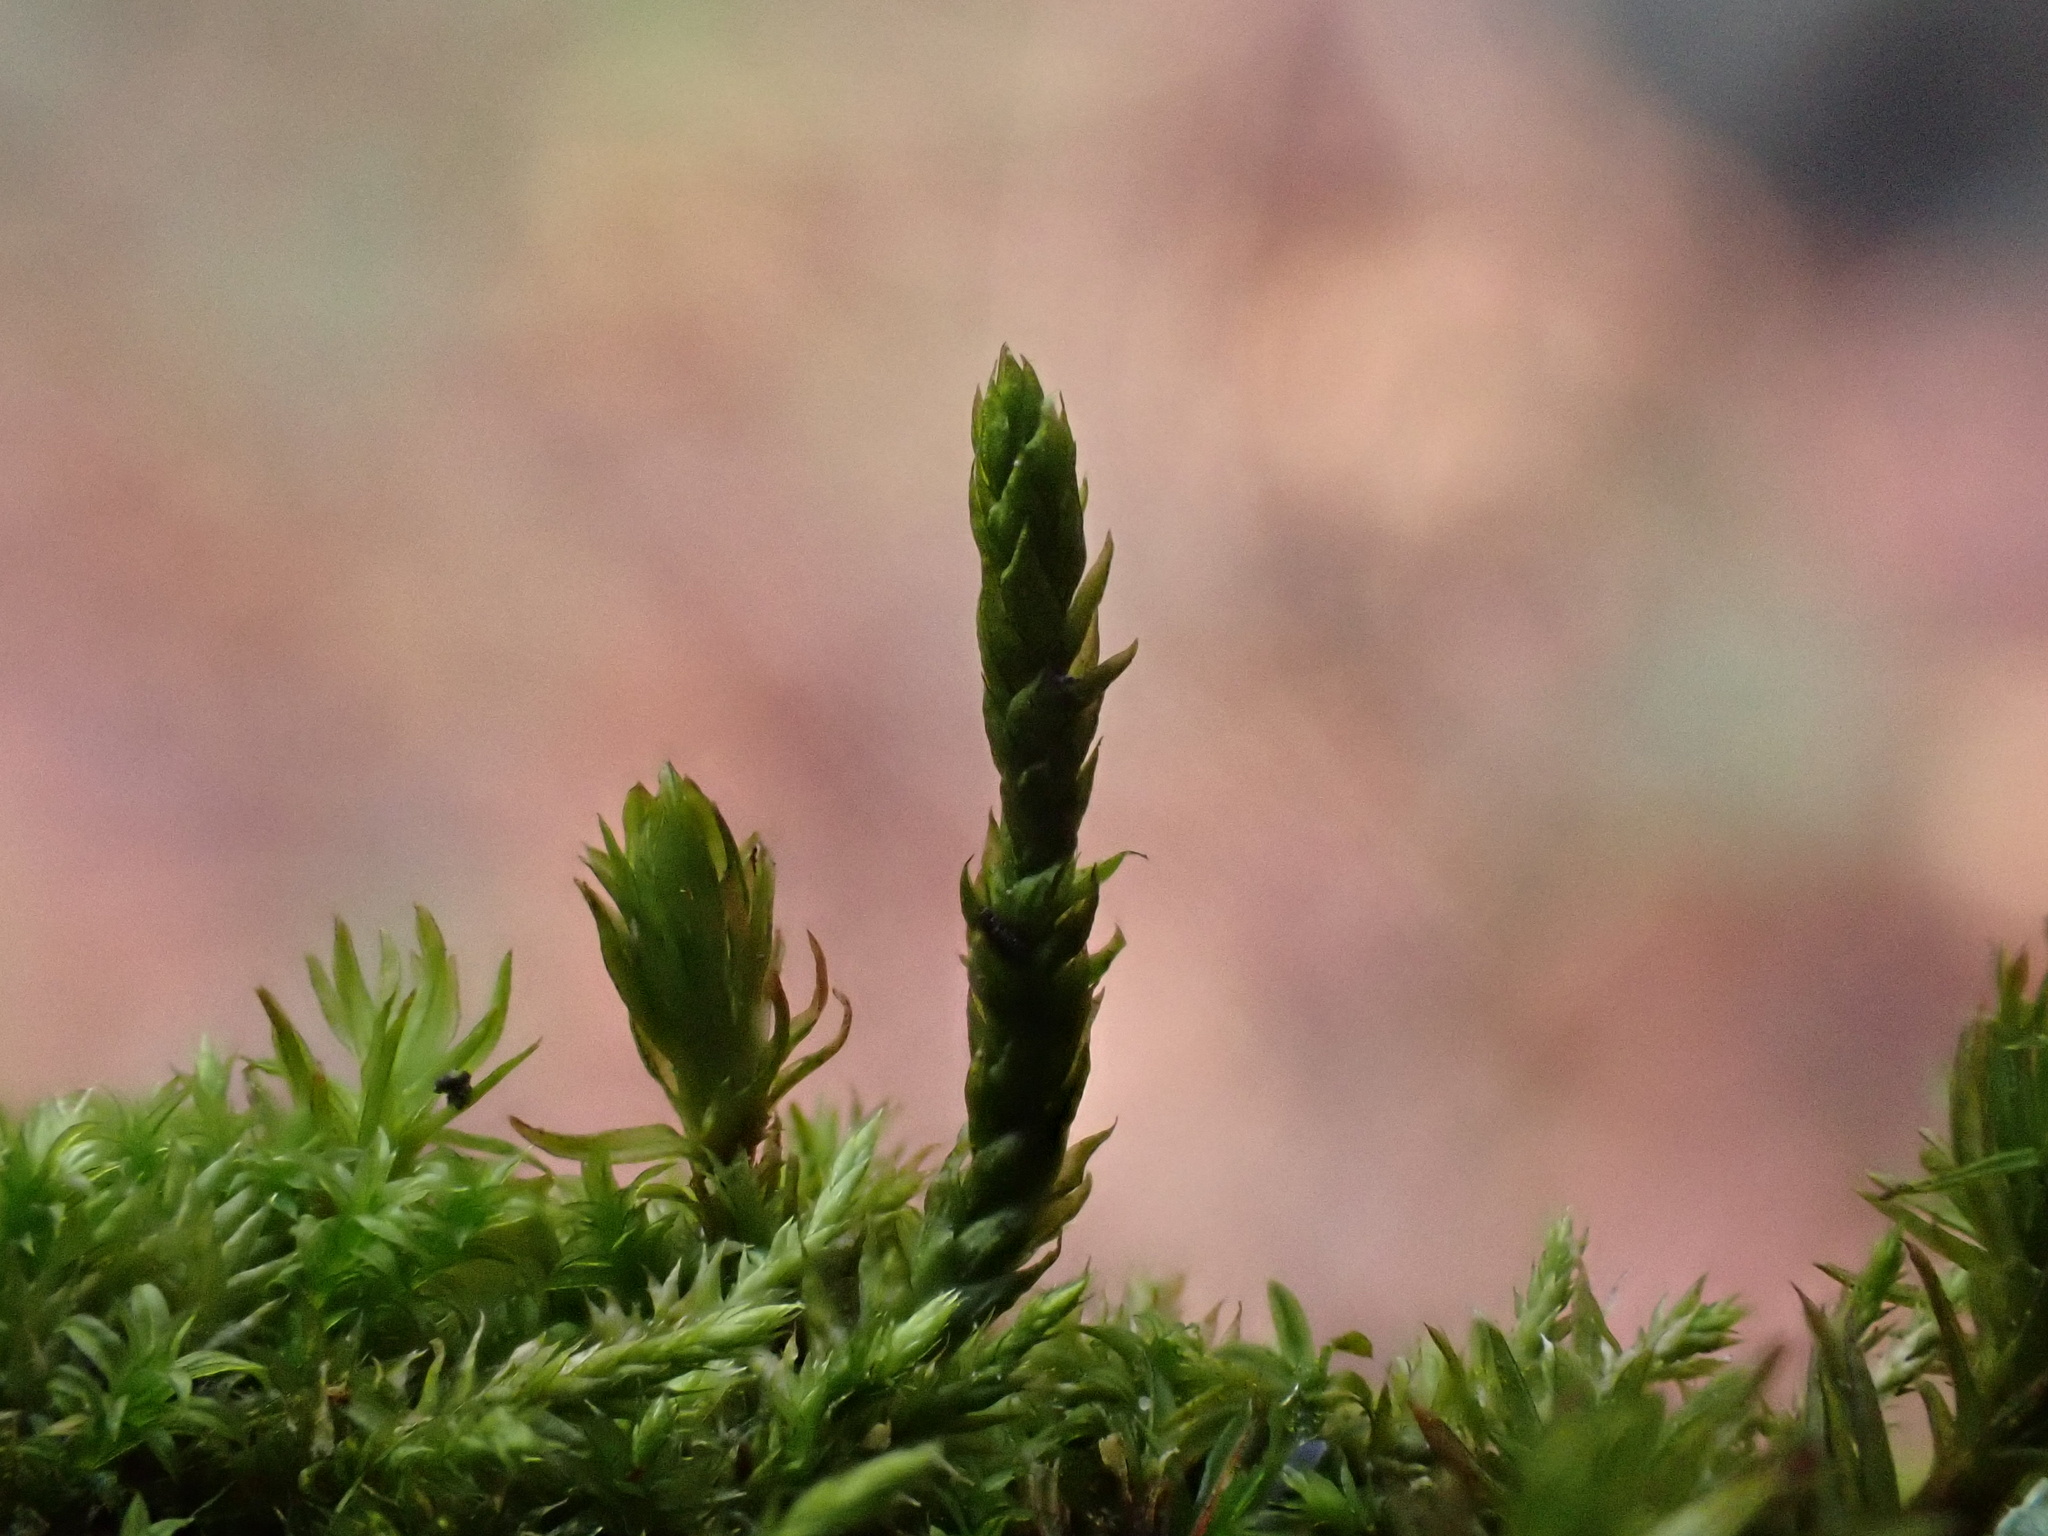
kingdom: Plantae
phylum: Bryophyta
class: Bryopsida
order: Hypnales
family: Cryphaeaceae
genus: Cryphaea
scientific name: Cryphaea heteromalla
